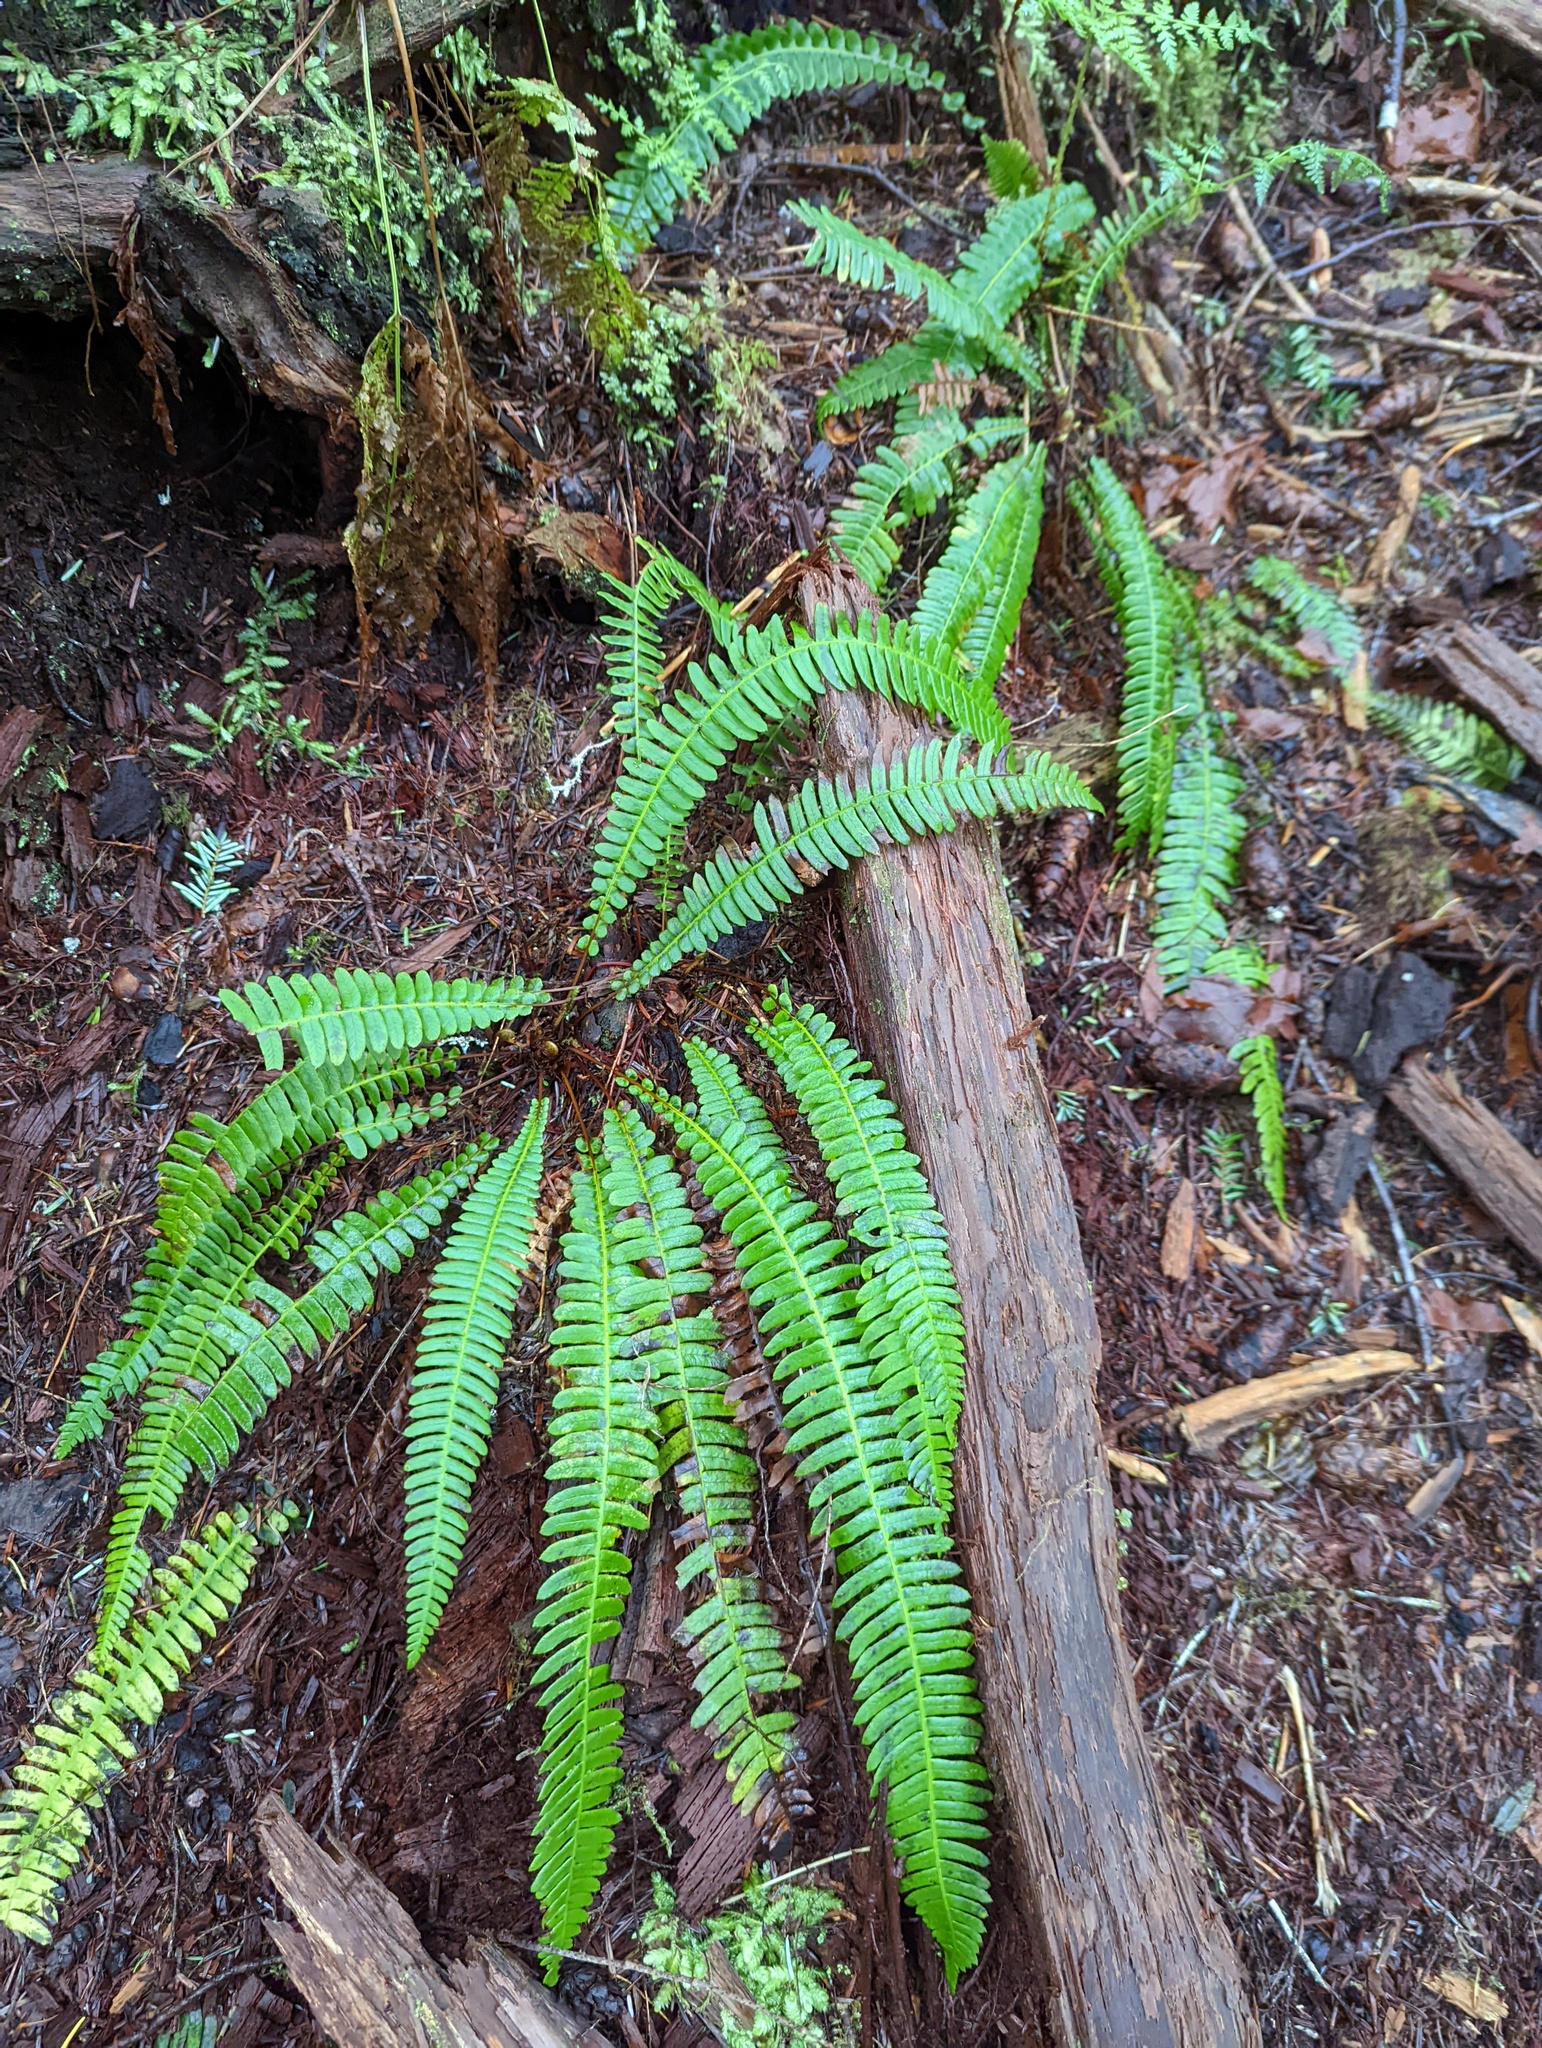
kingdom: Plantae
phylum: Tracheophyta
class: Polypodiopsida
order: Polypodiales
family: Blechnaceae
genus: Struthiopteris
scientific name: Struthiopteris spicant
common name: Deer fern
